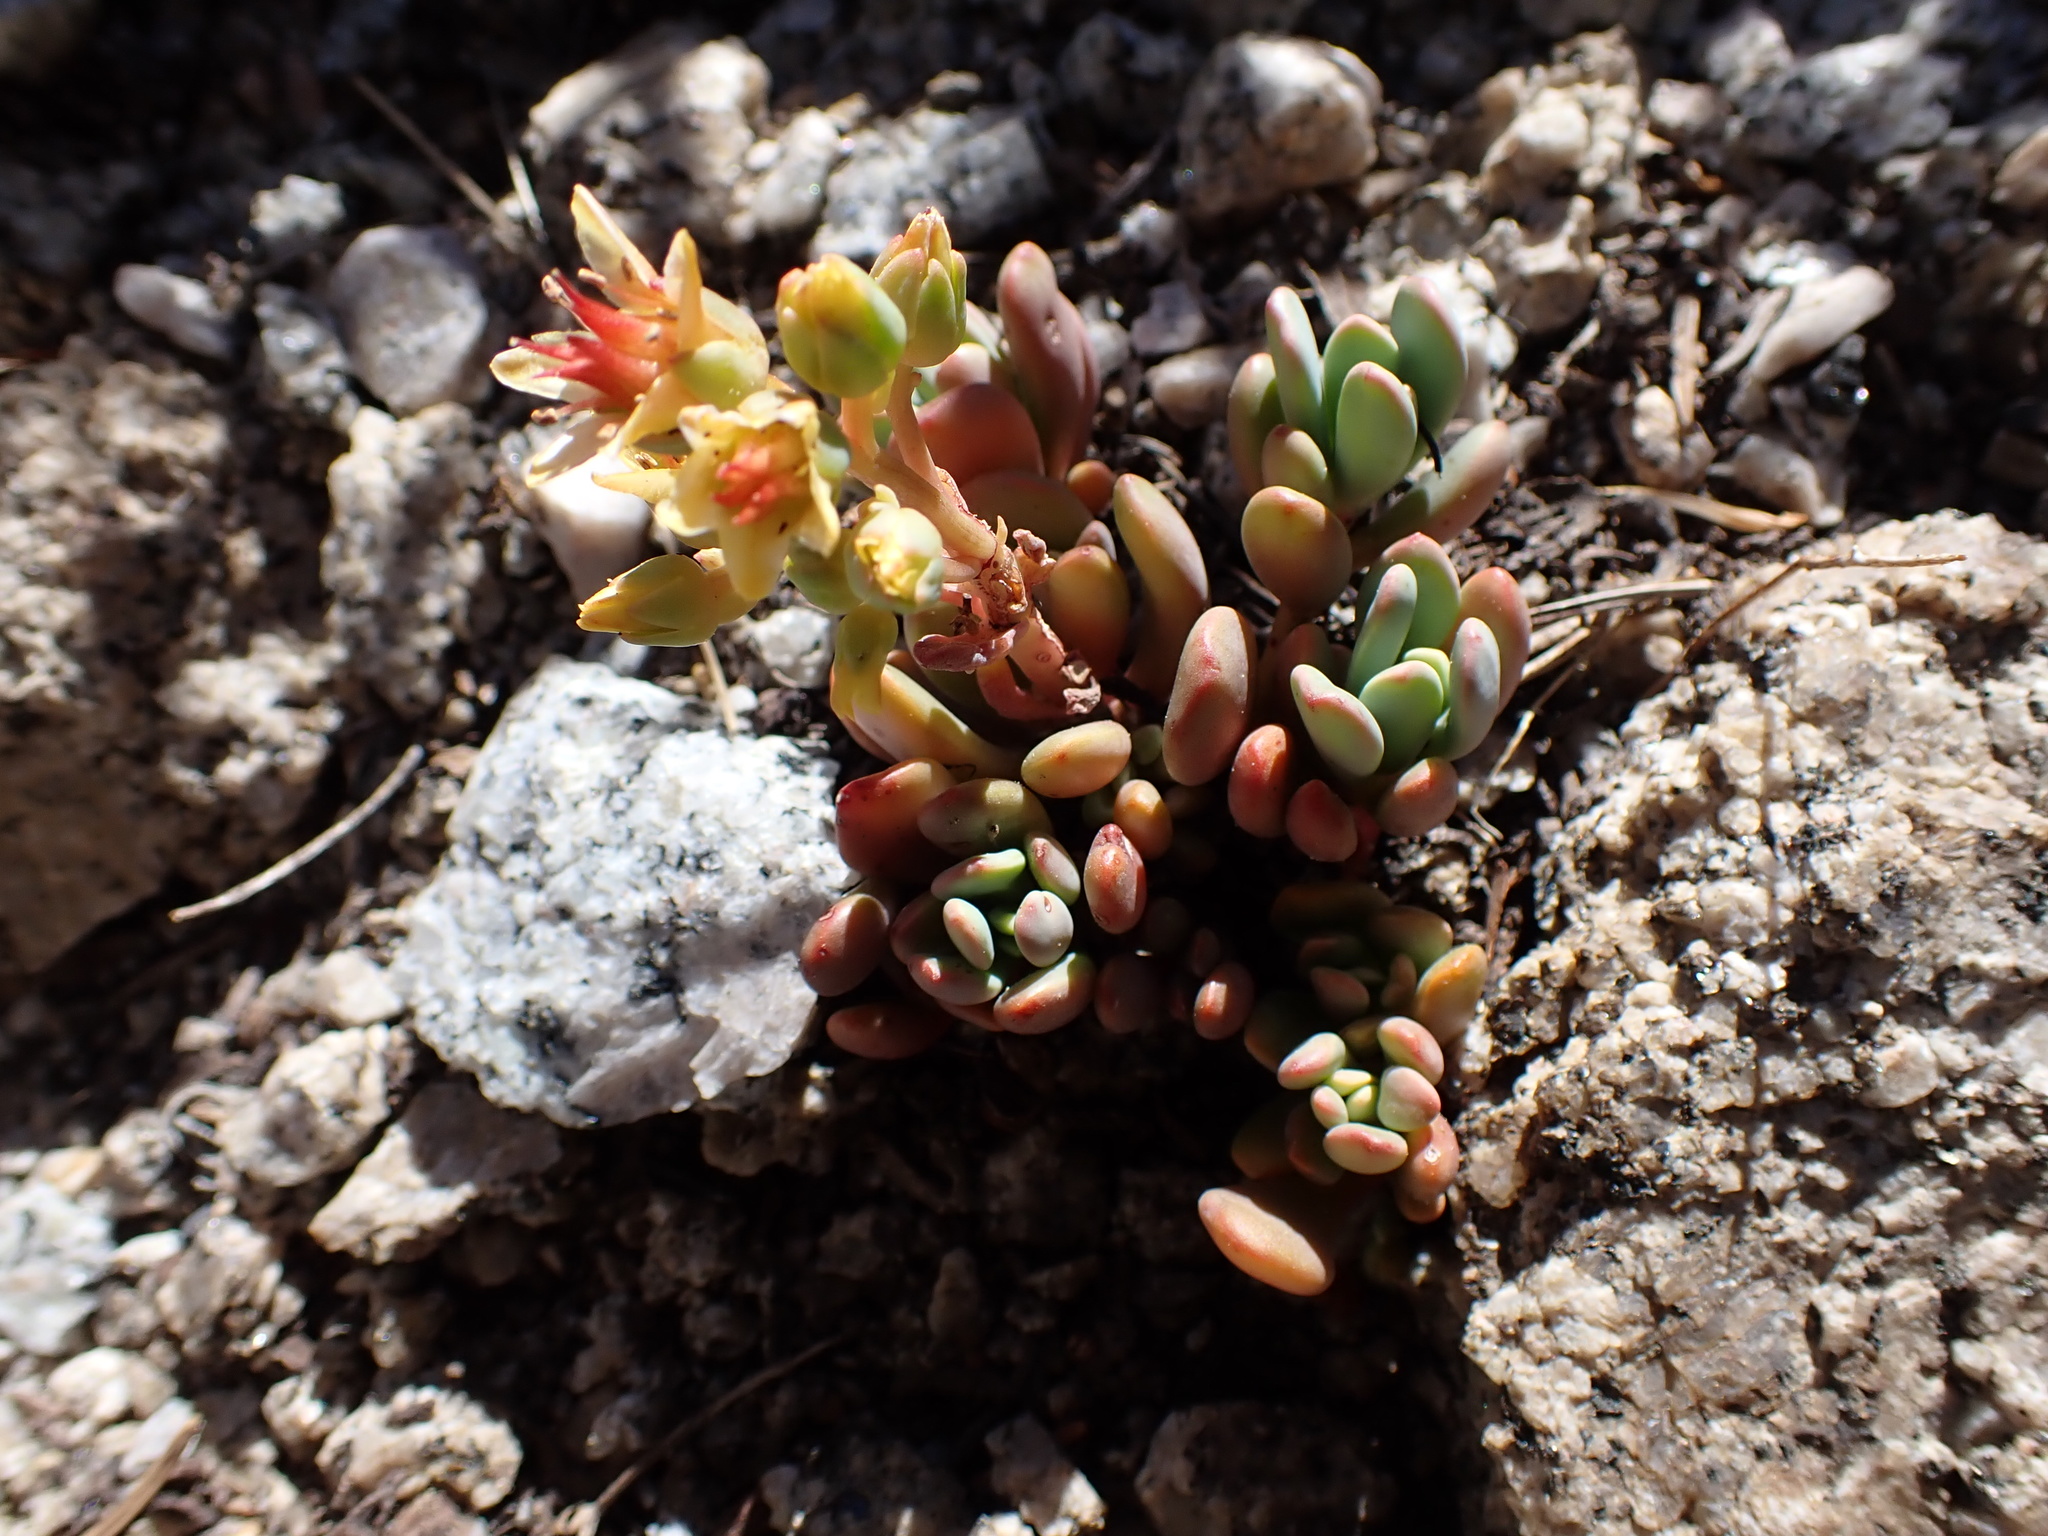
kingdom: Plantae
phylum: Tracheophyta
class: Magnoliopsida
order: Saxifragales
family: Crassulaceae
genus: Sedum
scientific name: Sedum obtusatum
